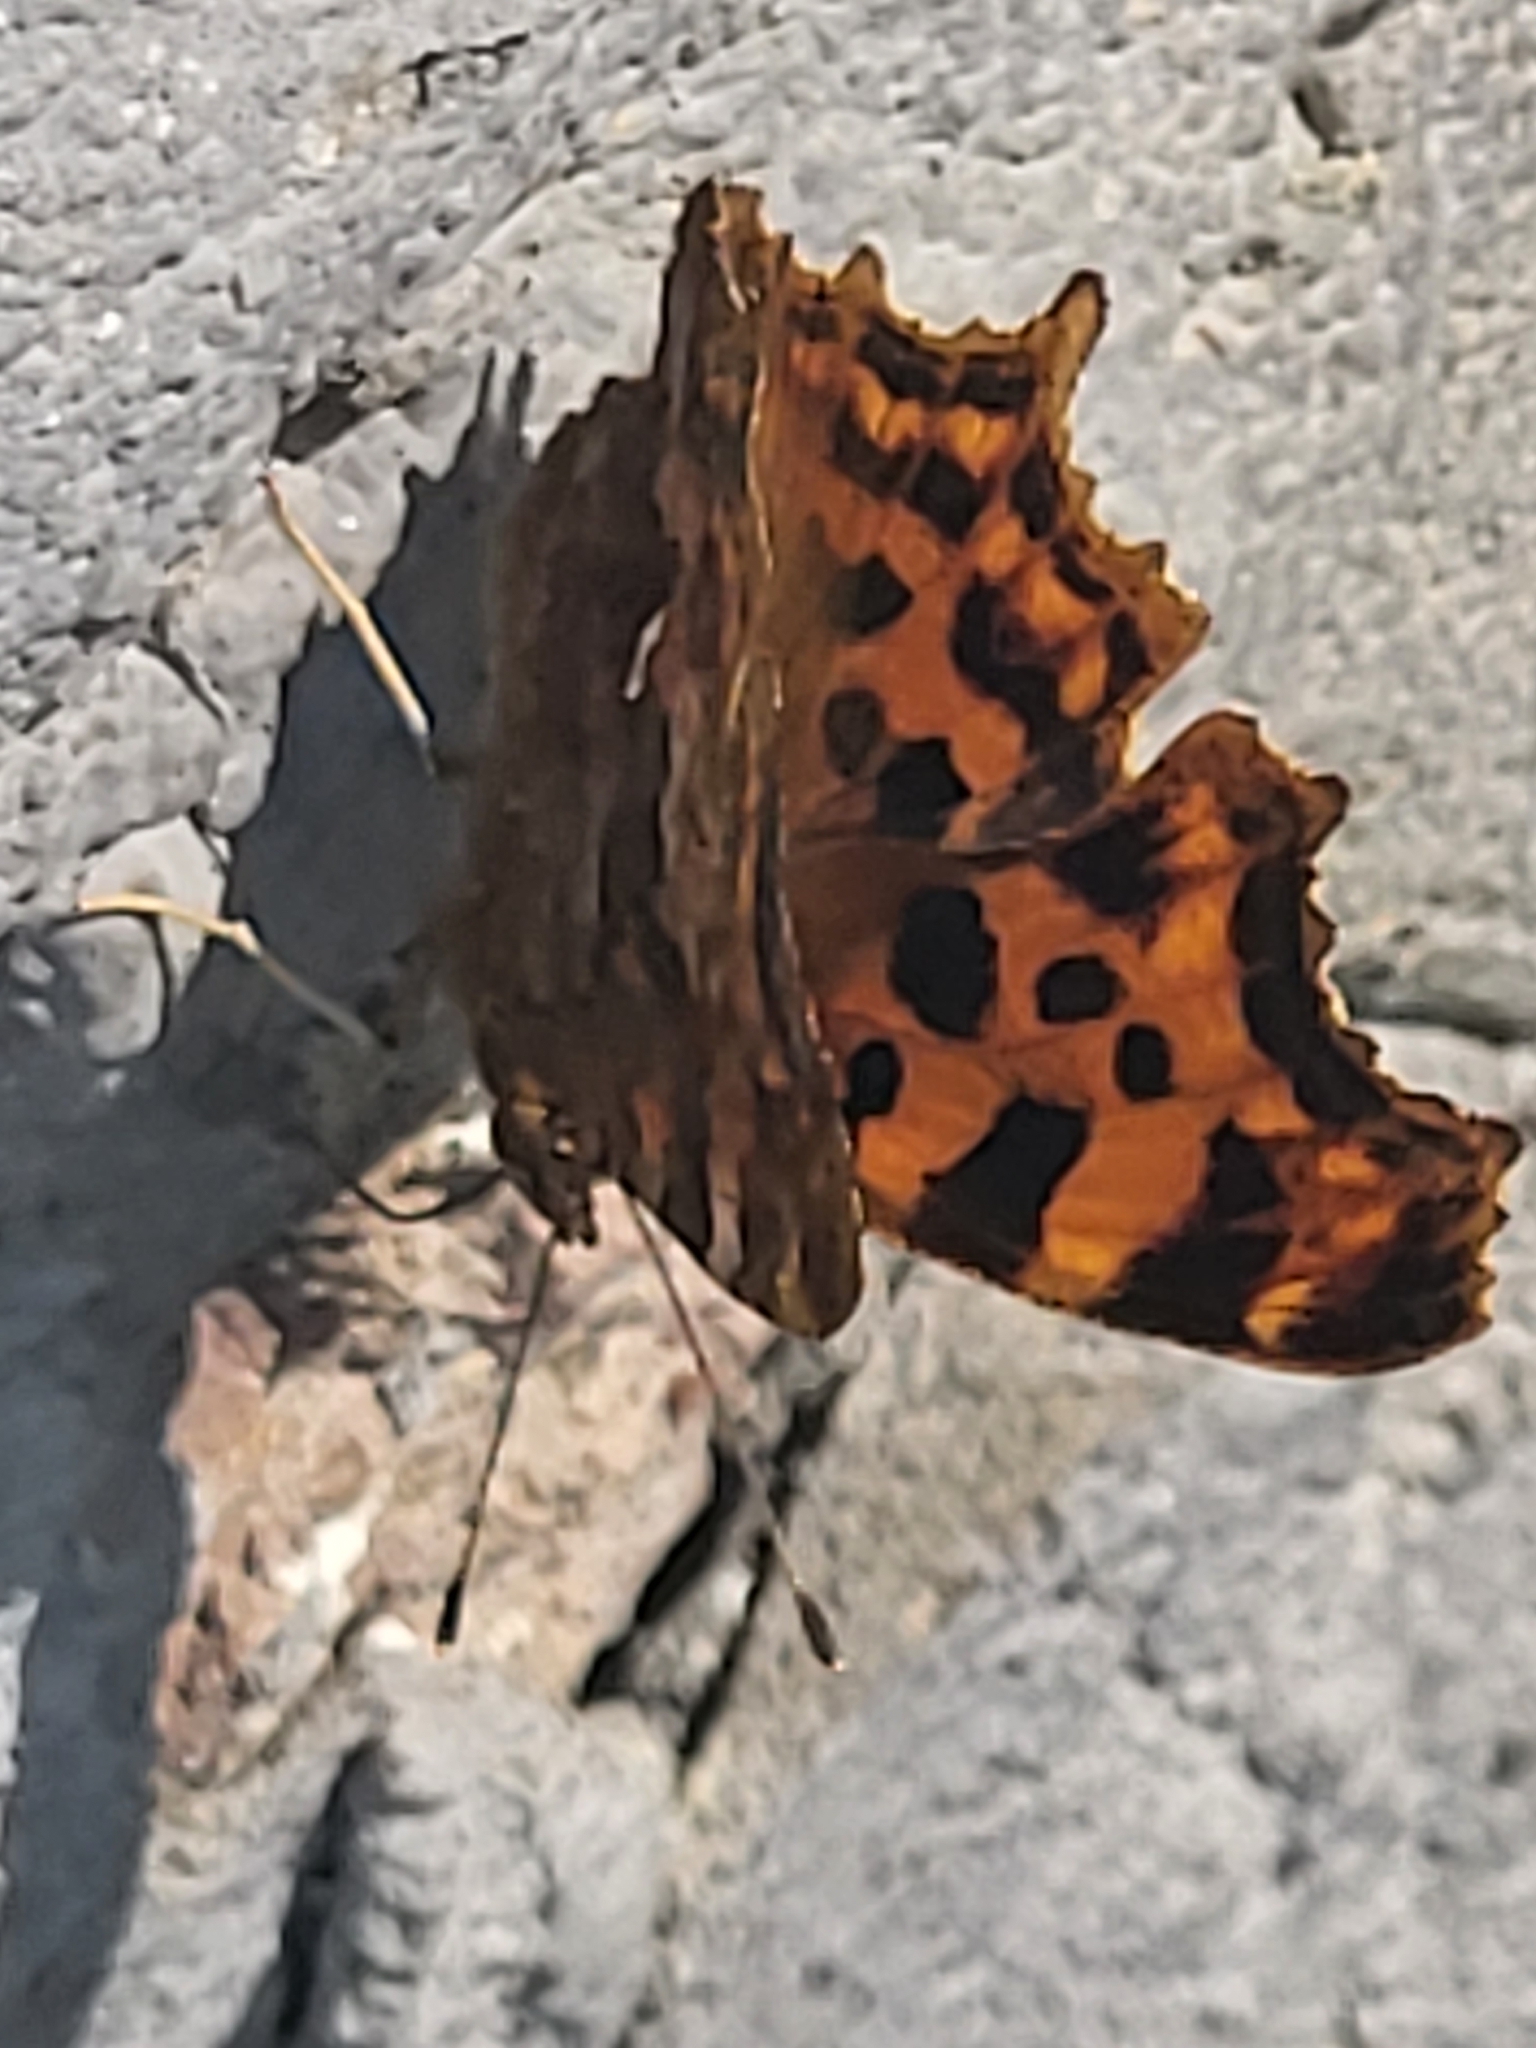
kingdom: Animalia
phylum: Arthropoda
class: Insecta
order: Lepidoptera
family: Nymphalidae
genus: Polygonia
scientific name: Polygonia c-album
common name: Comma
